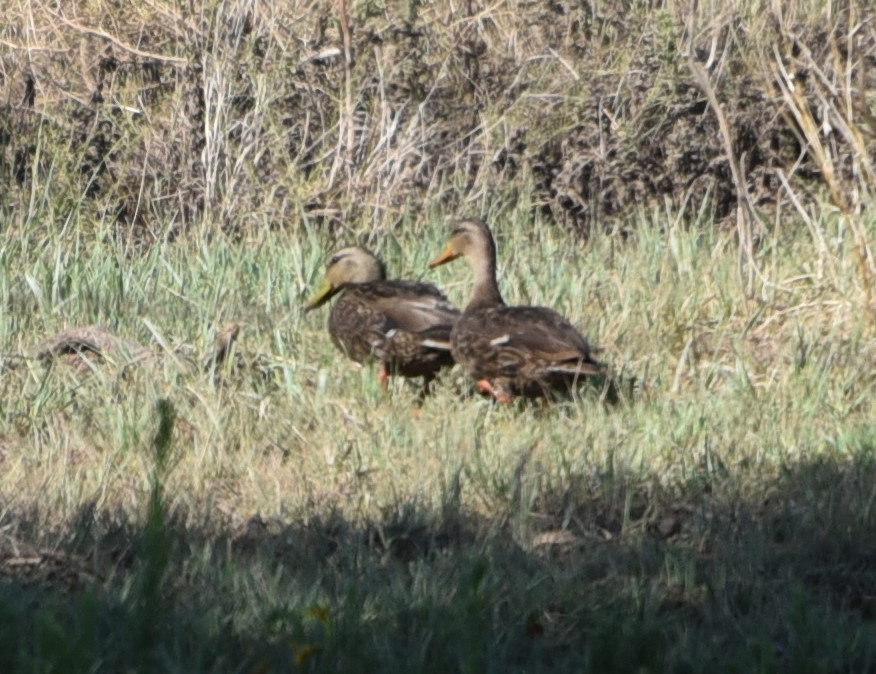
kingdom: Animalia
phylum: Chordata
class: Aves
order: Anseriformes
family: Anatidae
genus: Anas
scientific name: Anas diazi
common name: Mexican duck
